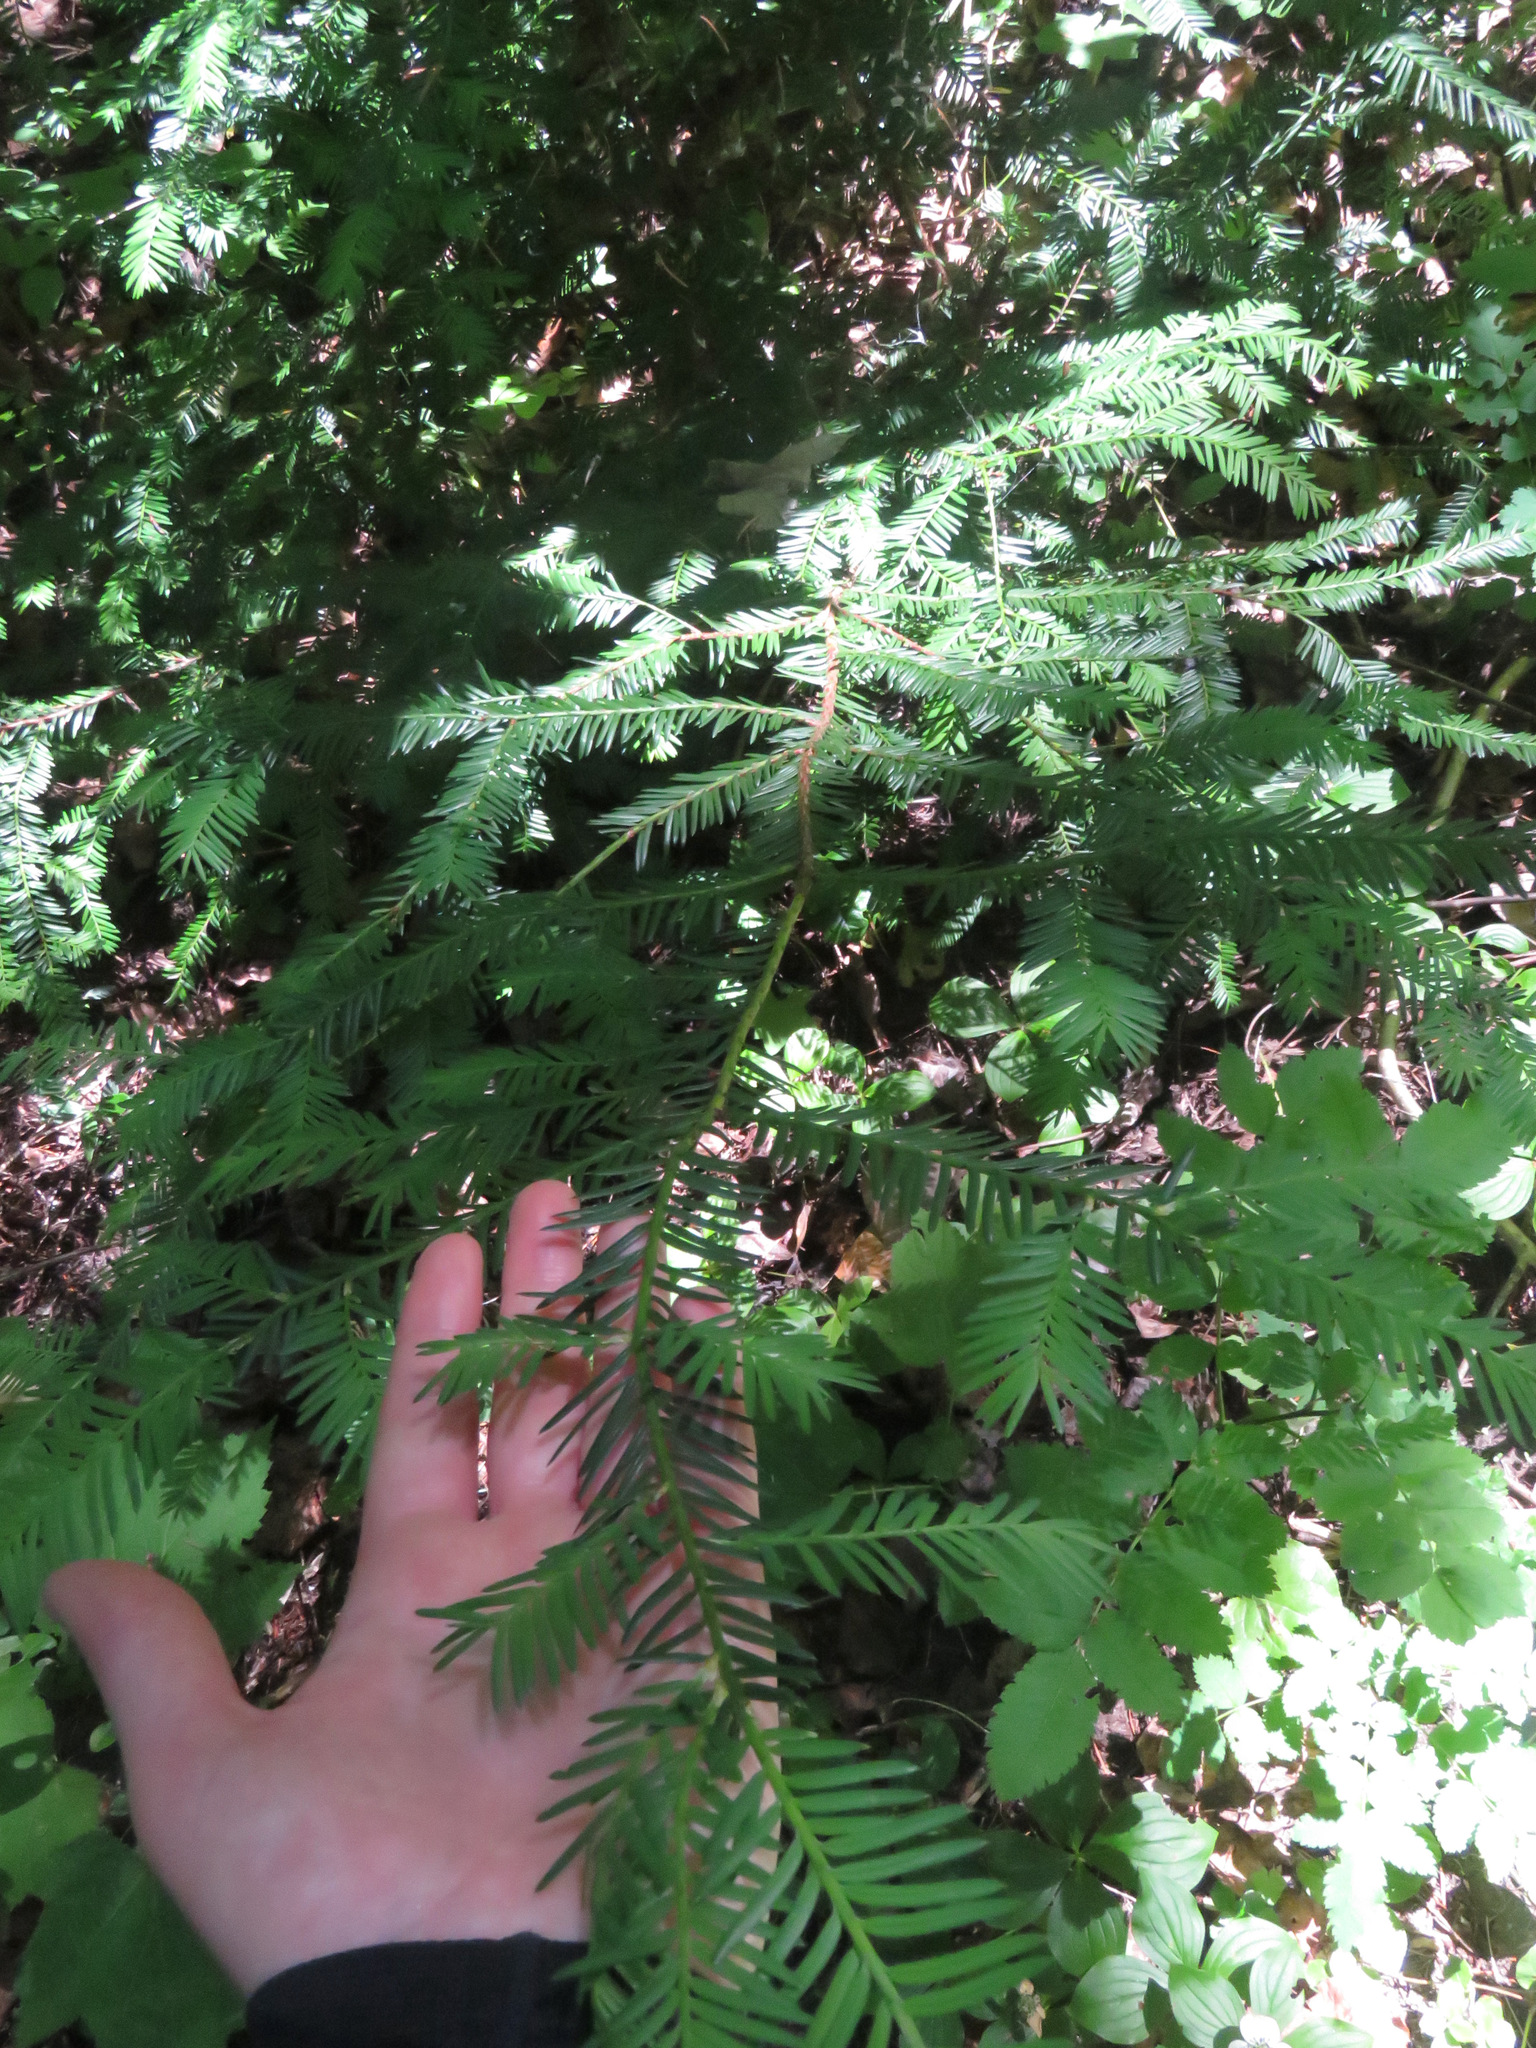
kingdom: Plantae
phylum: Tracheophyta
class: Pinopsida
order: Pinales
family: Taxaceae
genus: Taxus
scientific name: Taxus brevifolia
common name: Pacific yew
